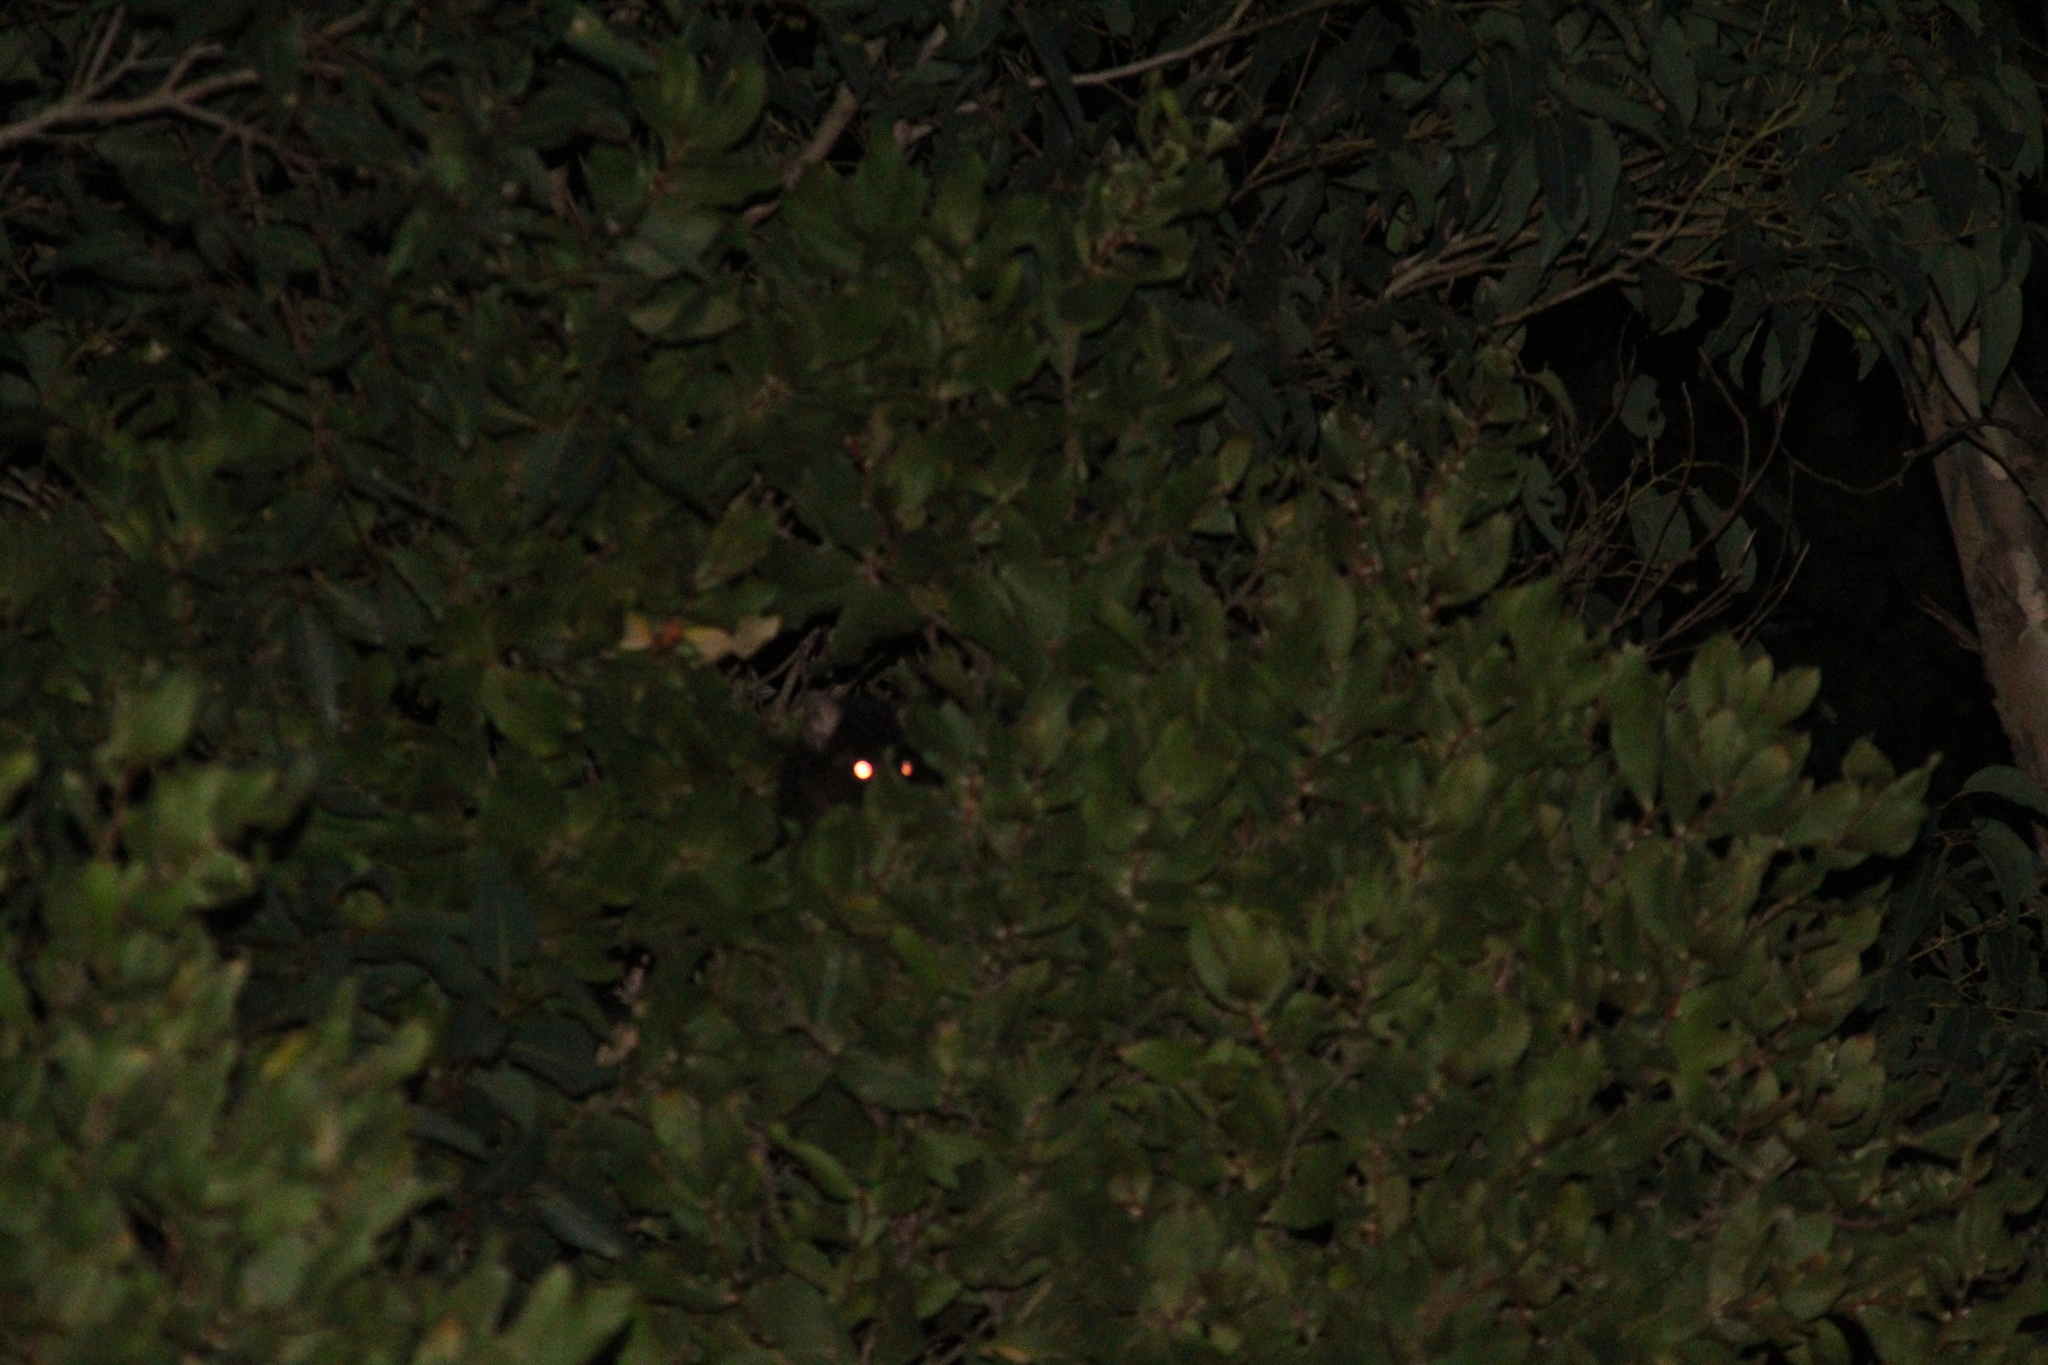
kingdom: Animalia
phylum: Chordata
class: Mammalia
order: Diprotodontia
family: Pseudocheiridae
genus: Pseudocheirus
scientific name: Pseudocheirus peregrinus
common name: Common ringtail possum
